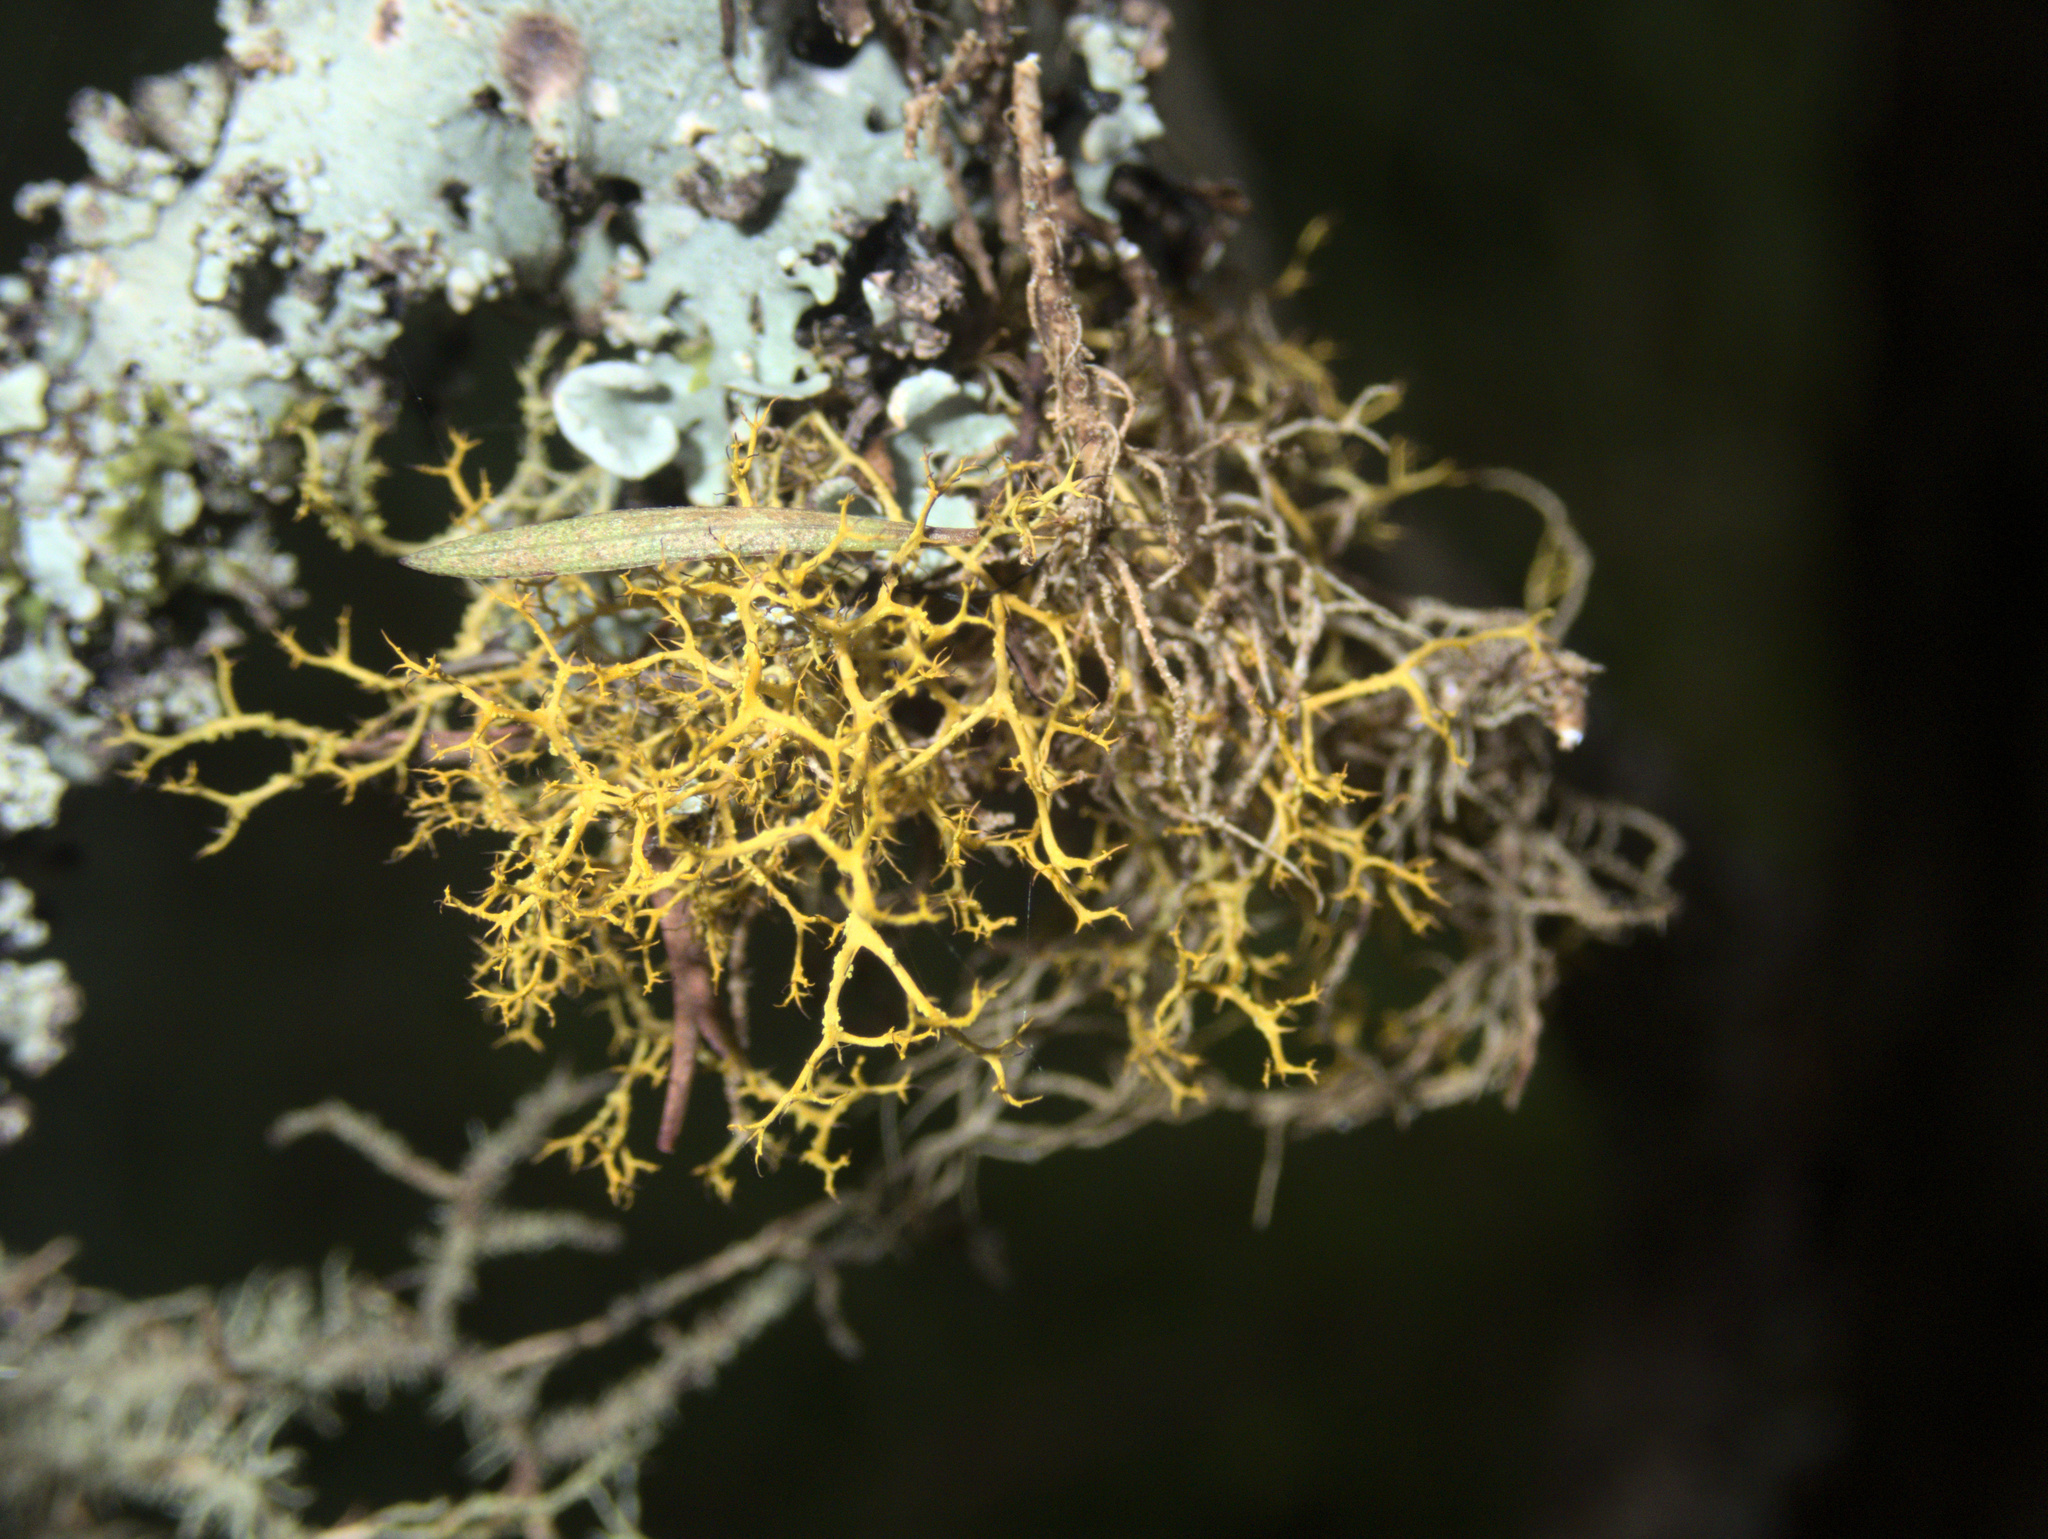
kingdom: Fungi
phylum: Ascomycota
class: Lecanoromycetes
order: Teloschistales
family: Teloschistaceae
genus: Teloschistes
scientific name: Teloschistes flavicans
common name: Golden hair-lichen
